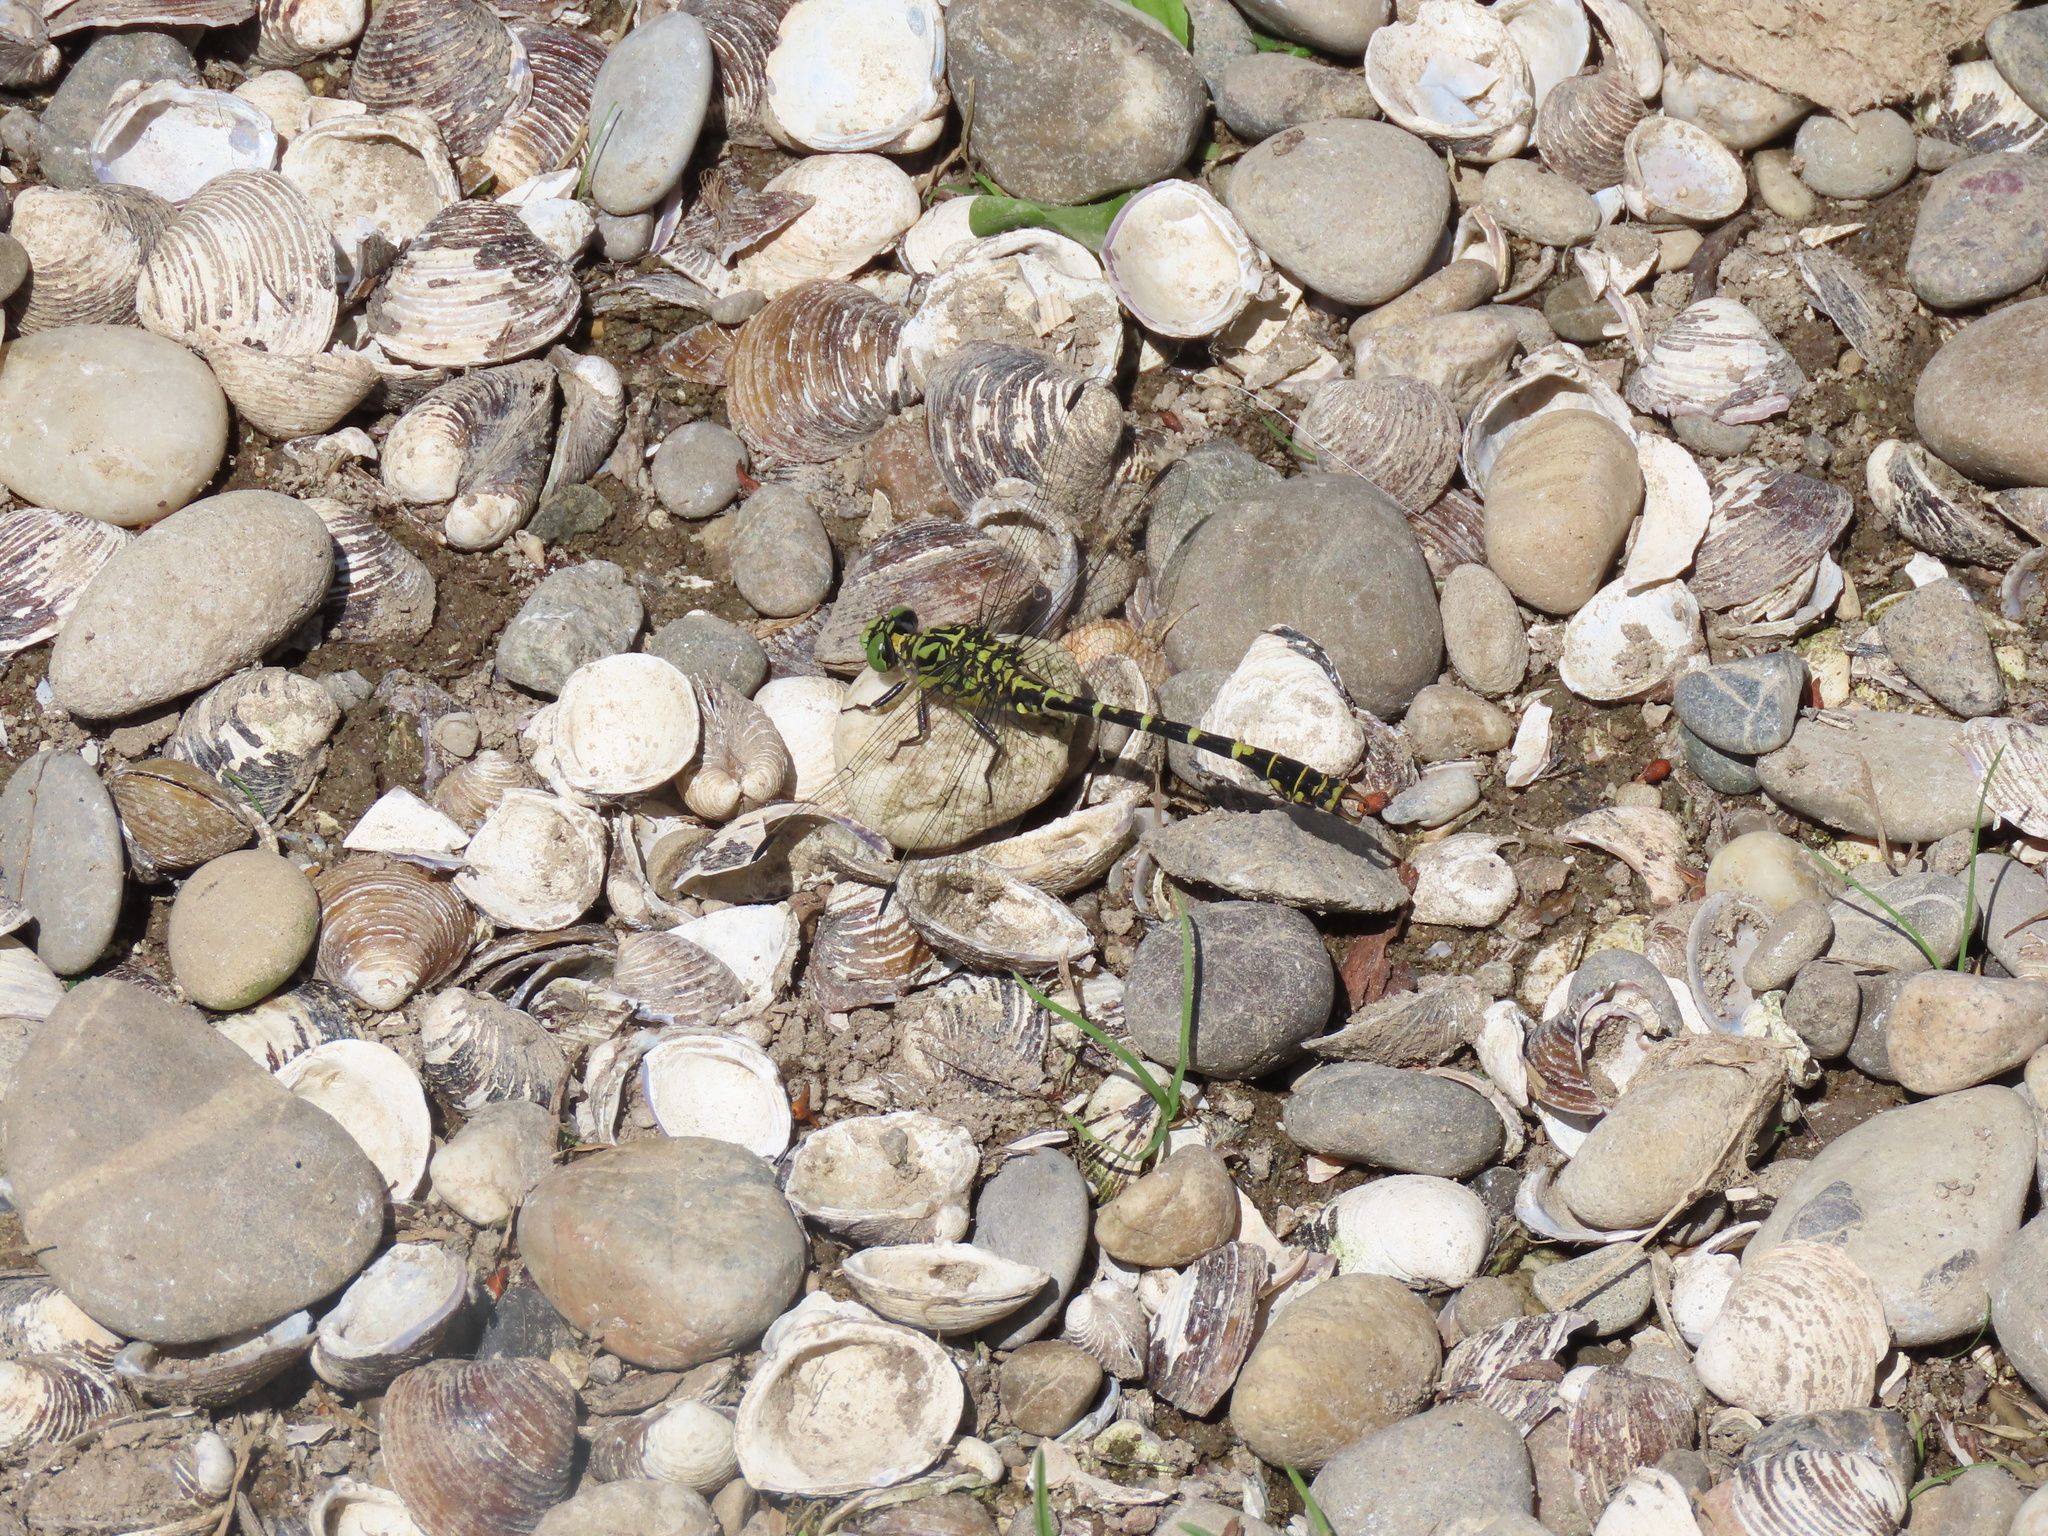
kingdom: Animalia
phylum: Arthropoda
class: Insecta
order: Odonata
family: Gomphidae
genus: Onychogomphus
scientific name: Onychogomphus forcipatus
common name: Small pincertail
